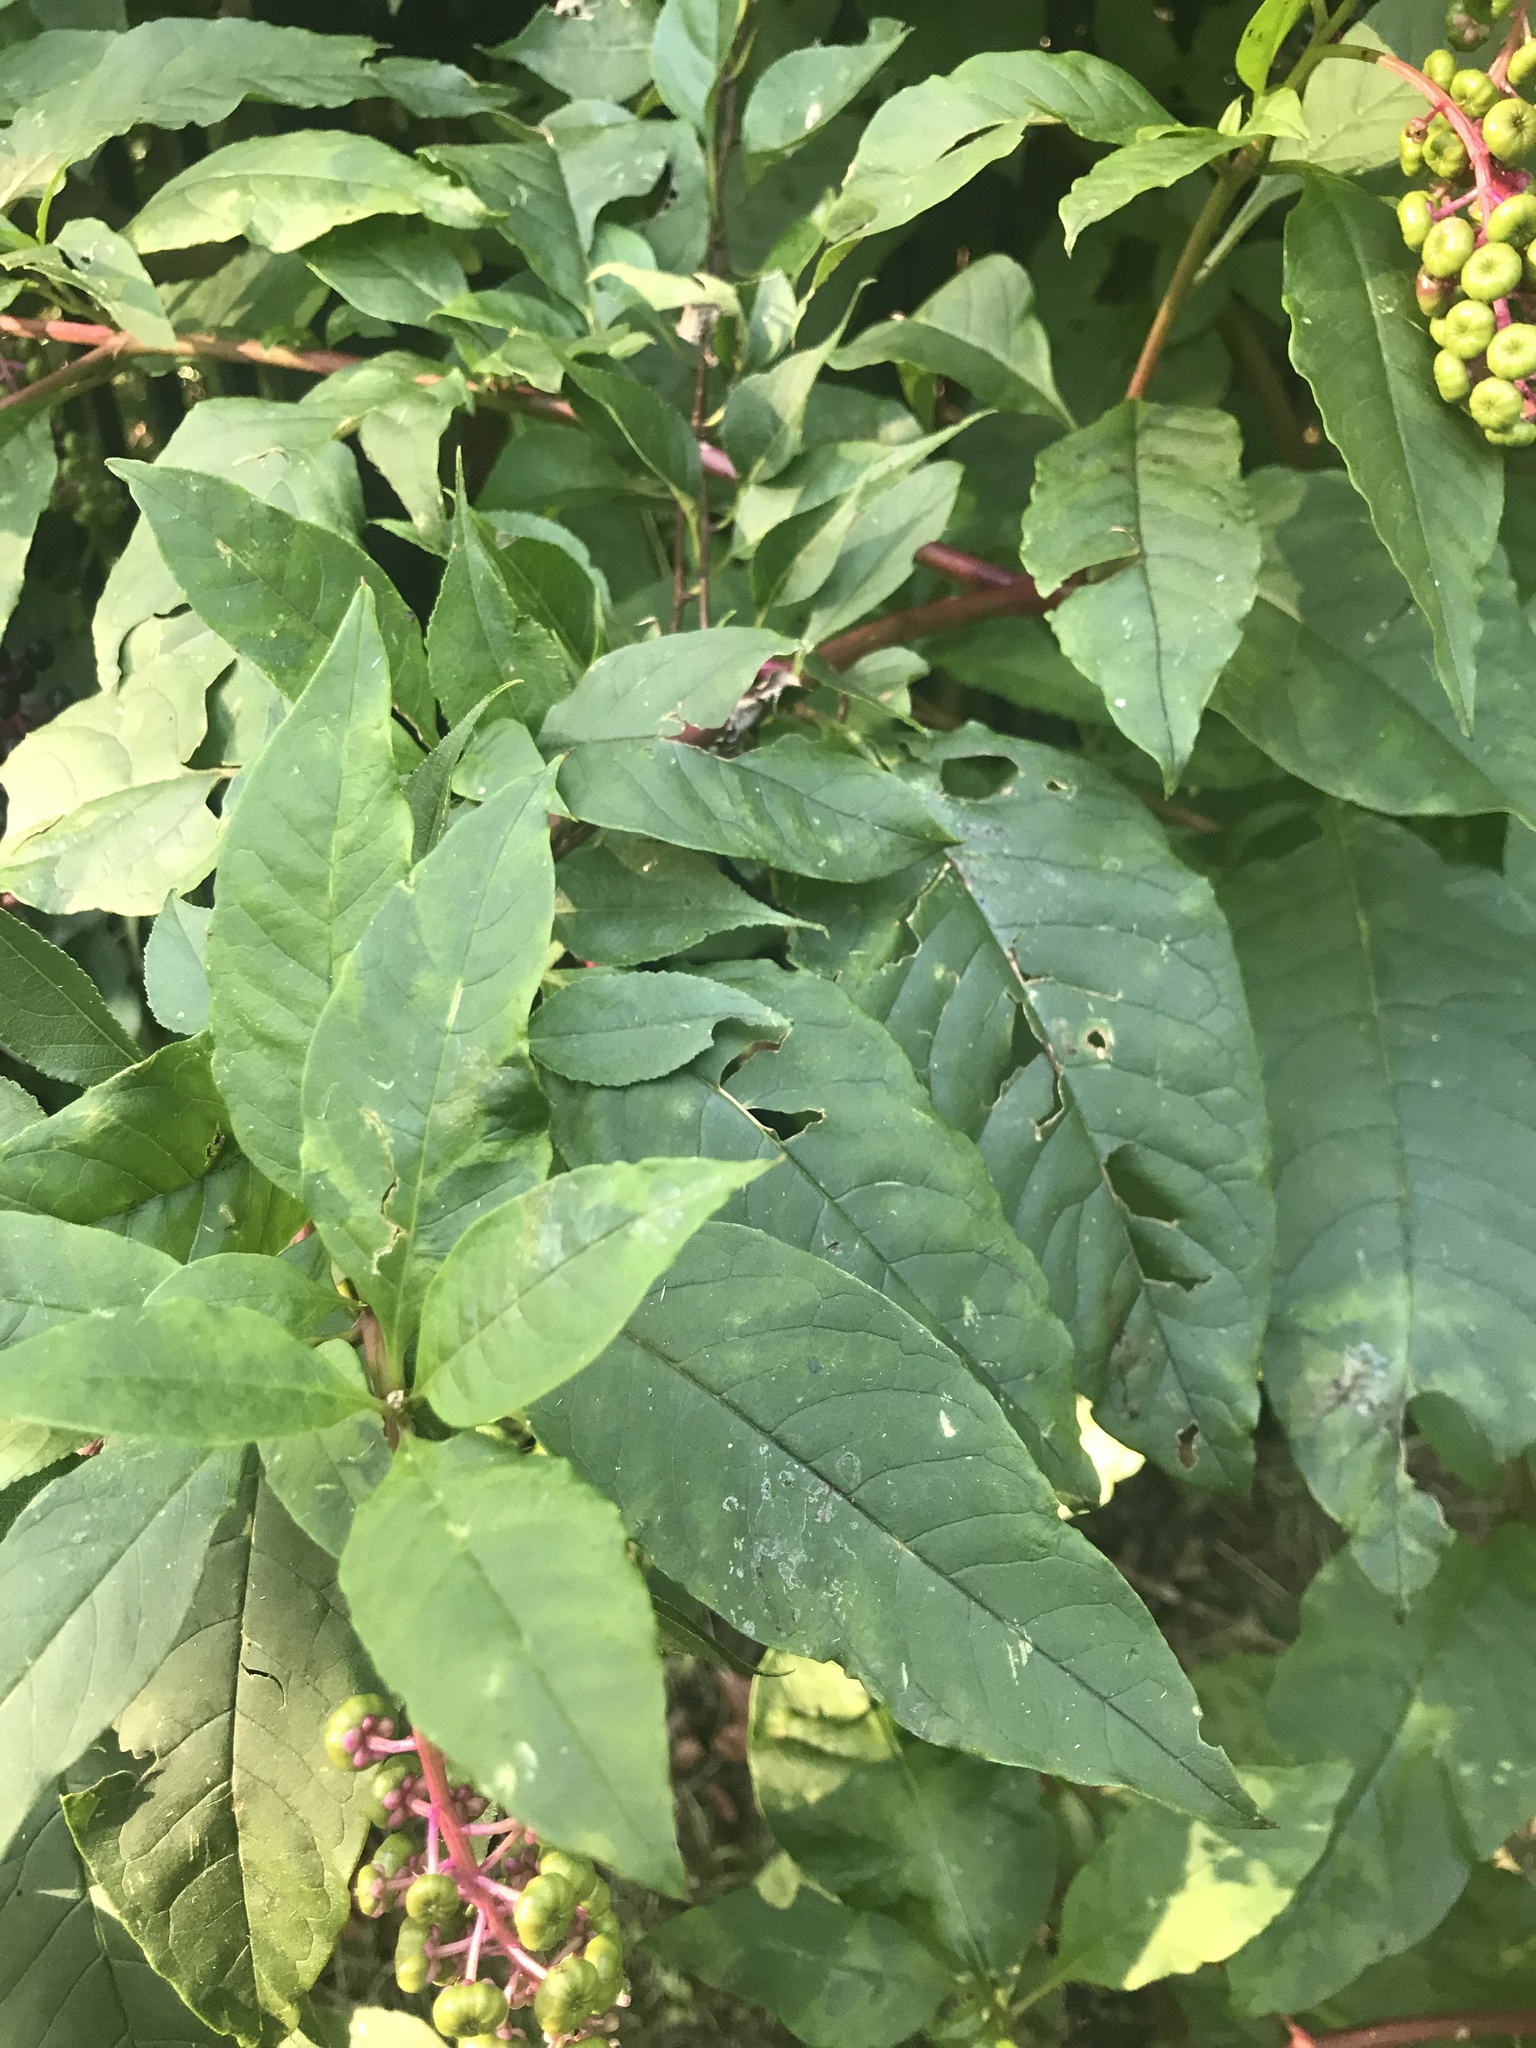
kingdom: Viruses
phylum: Pisuviricota
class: Stelpaviricetes
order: Patatavirales
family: Potyviridae
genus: Potyvirus
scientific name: Potyvirus Pokeweed mosaic virus
